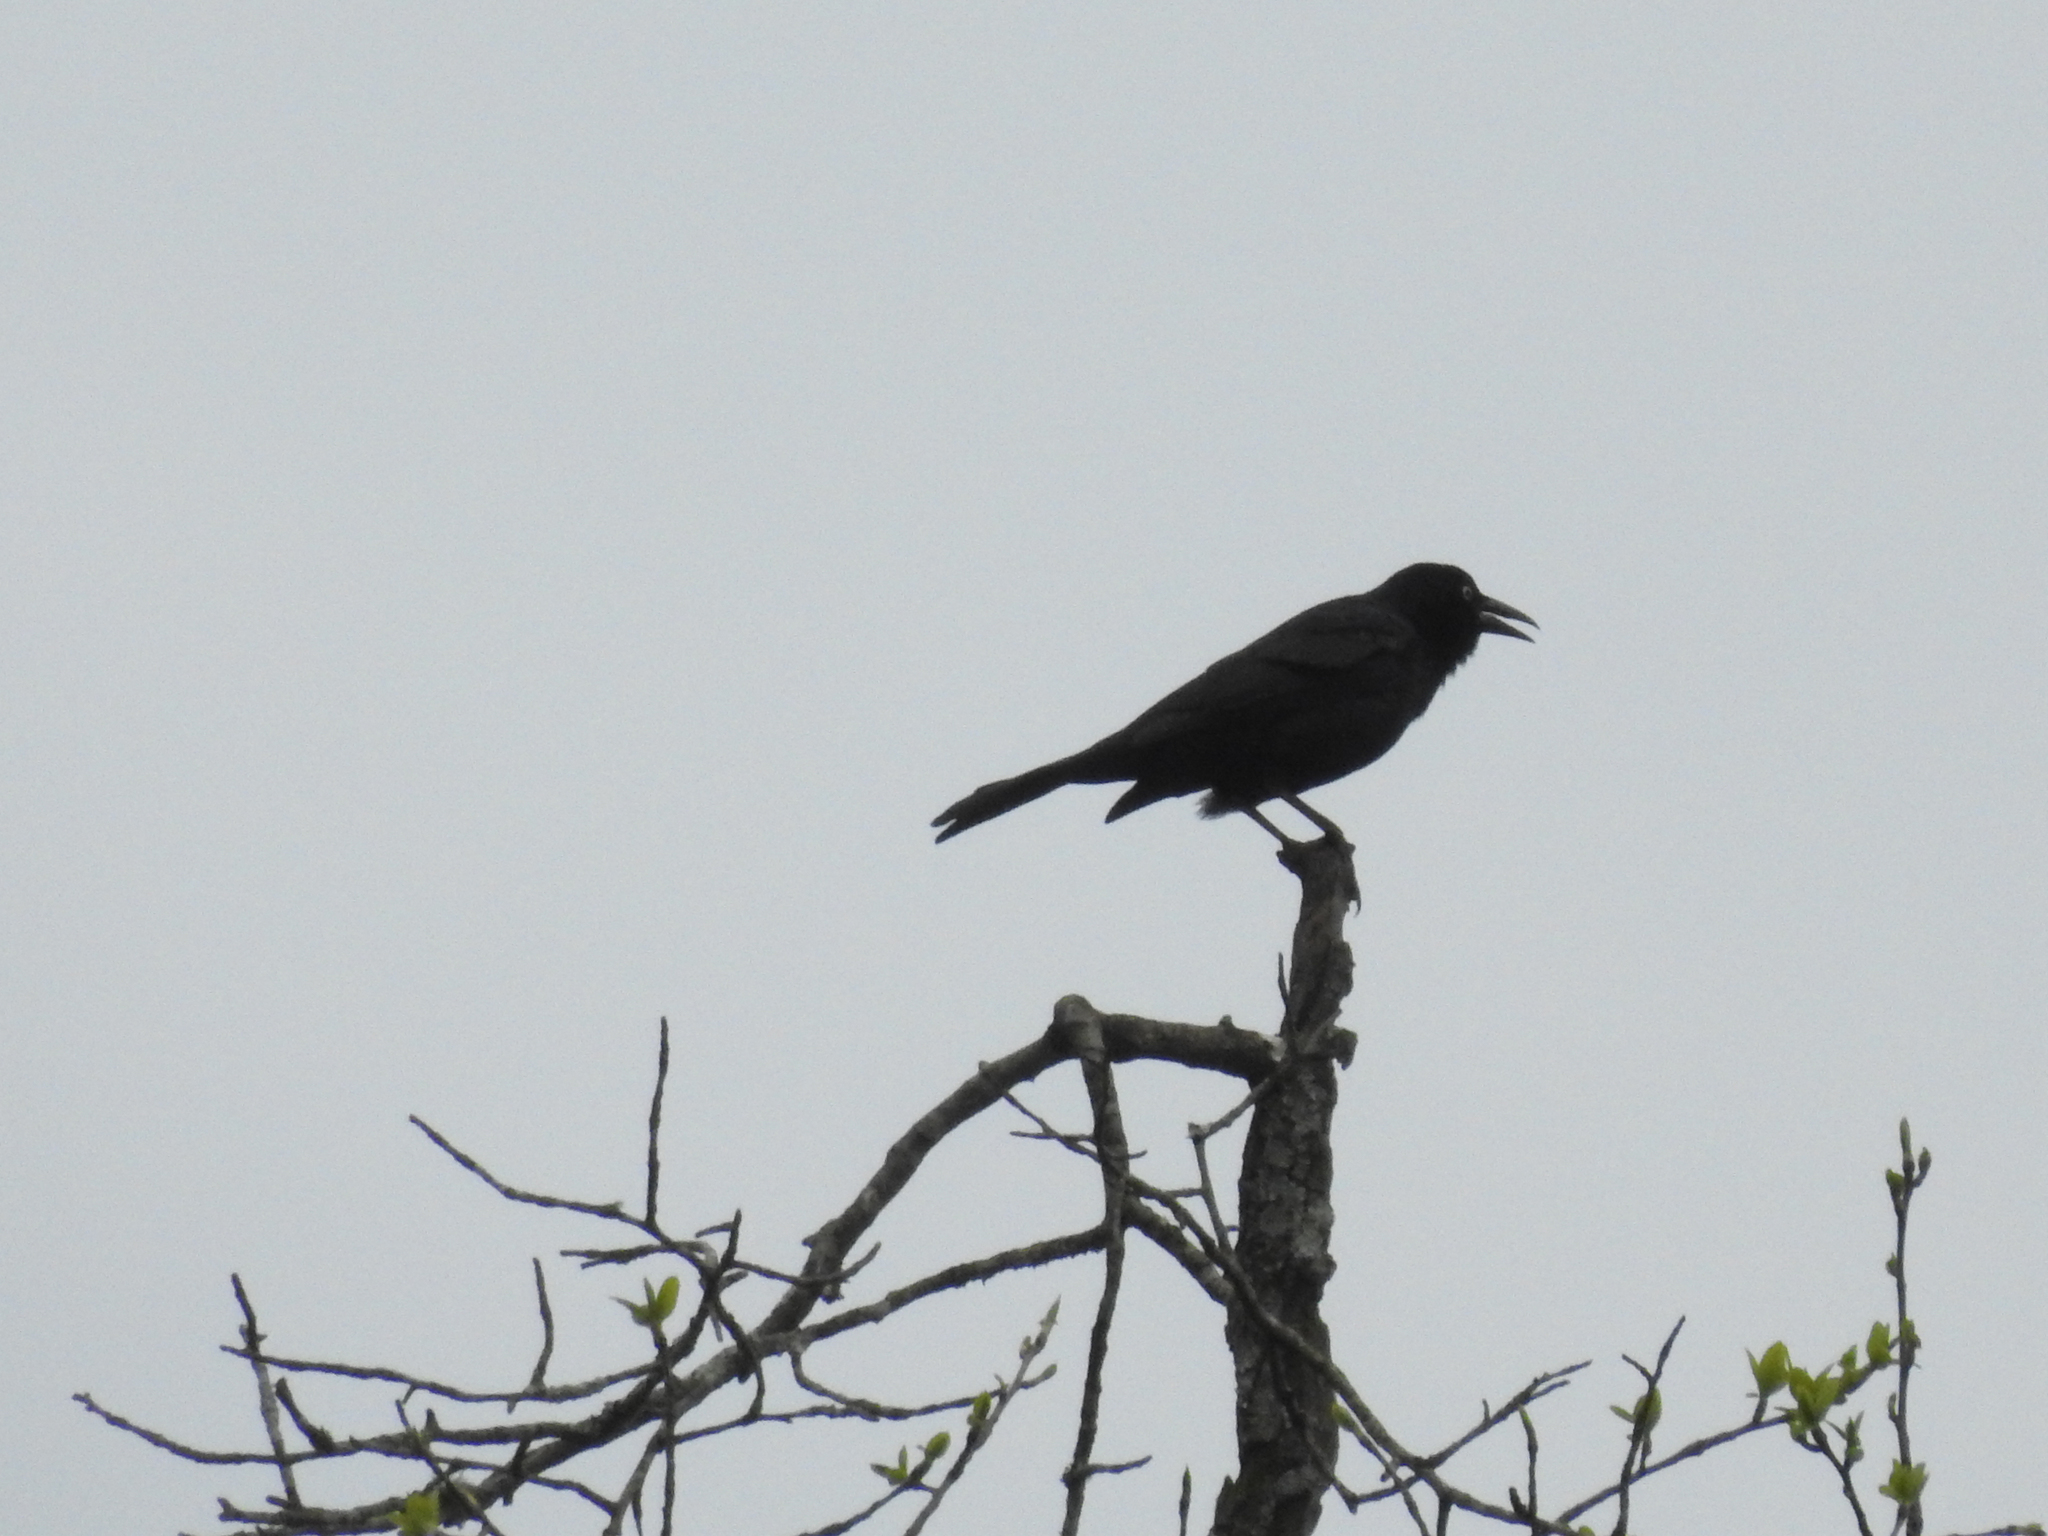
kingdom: Animalia
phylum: Chordata
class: Aves
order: Passeriformes
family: Icteridae
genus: Quiscalus
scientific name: Quiscalus quiscula
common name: Common grackle
